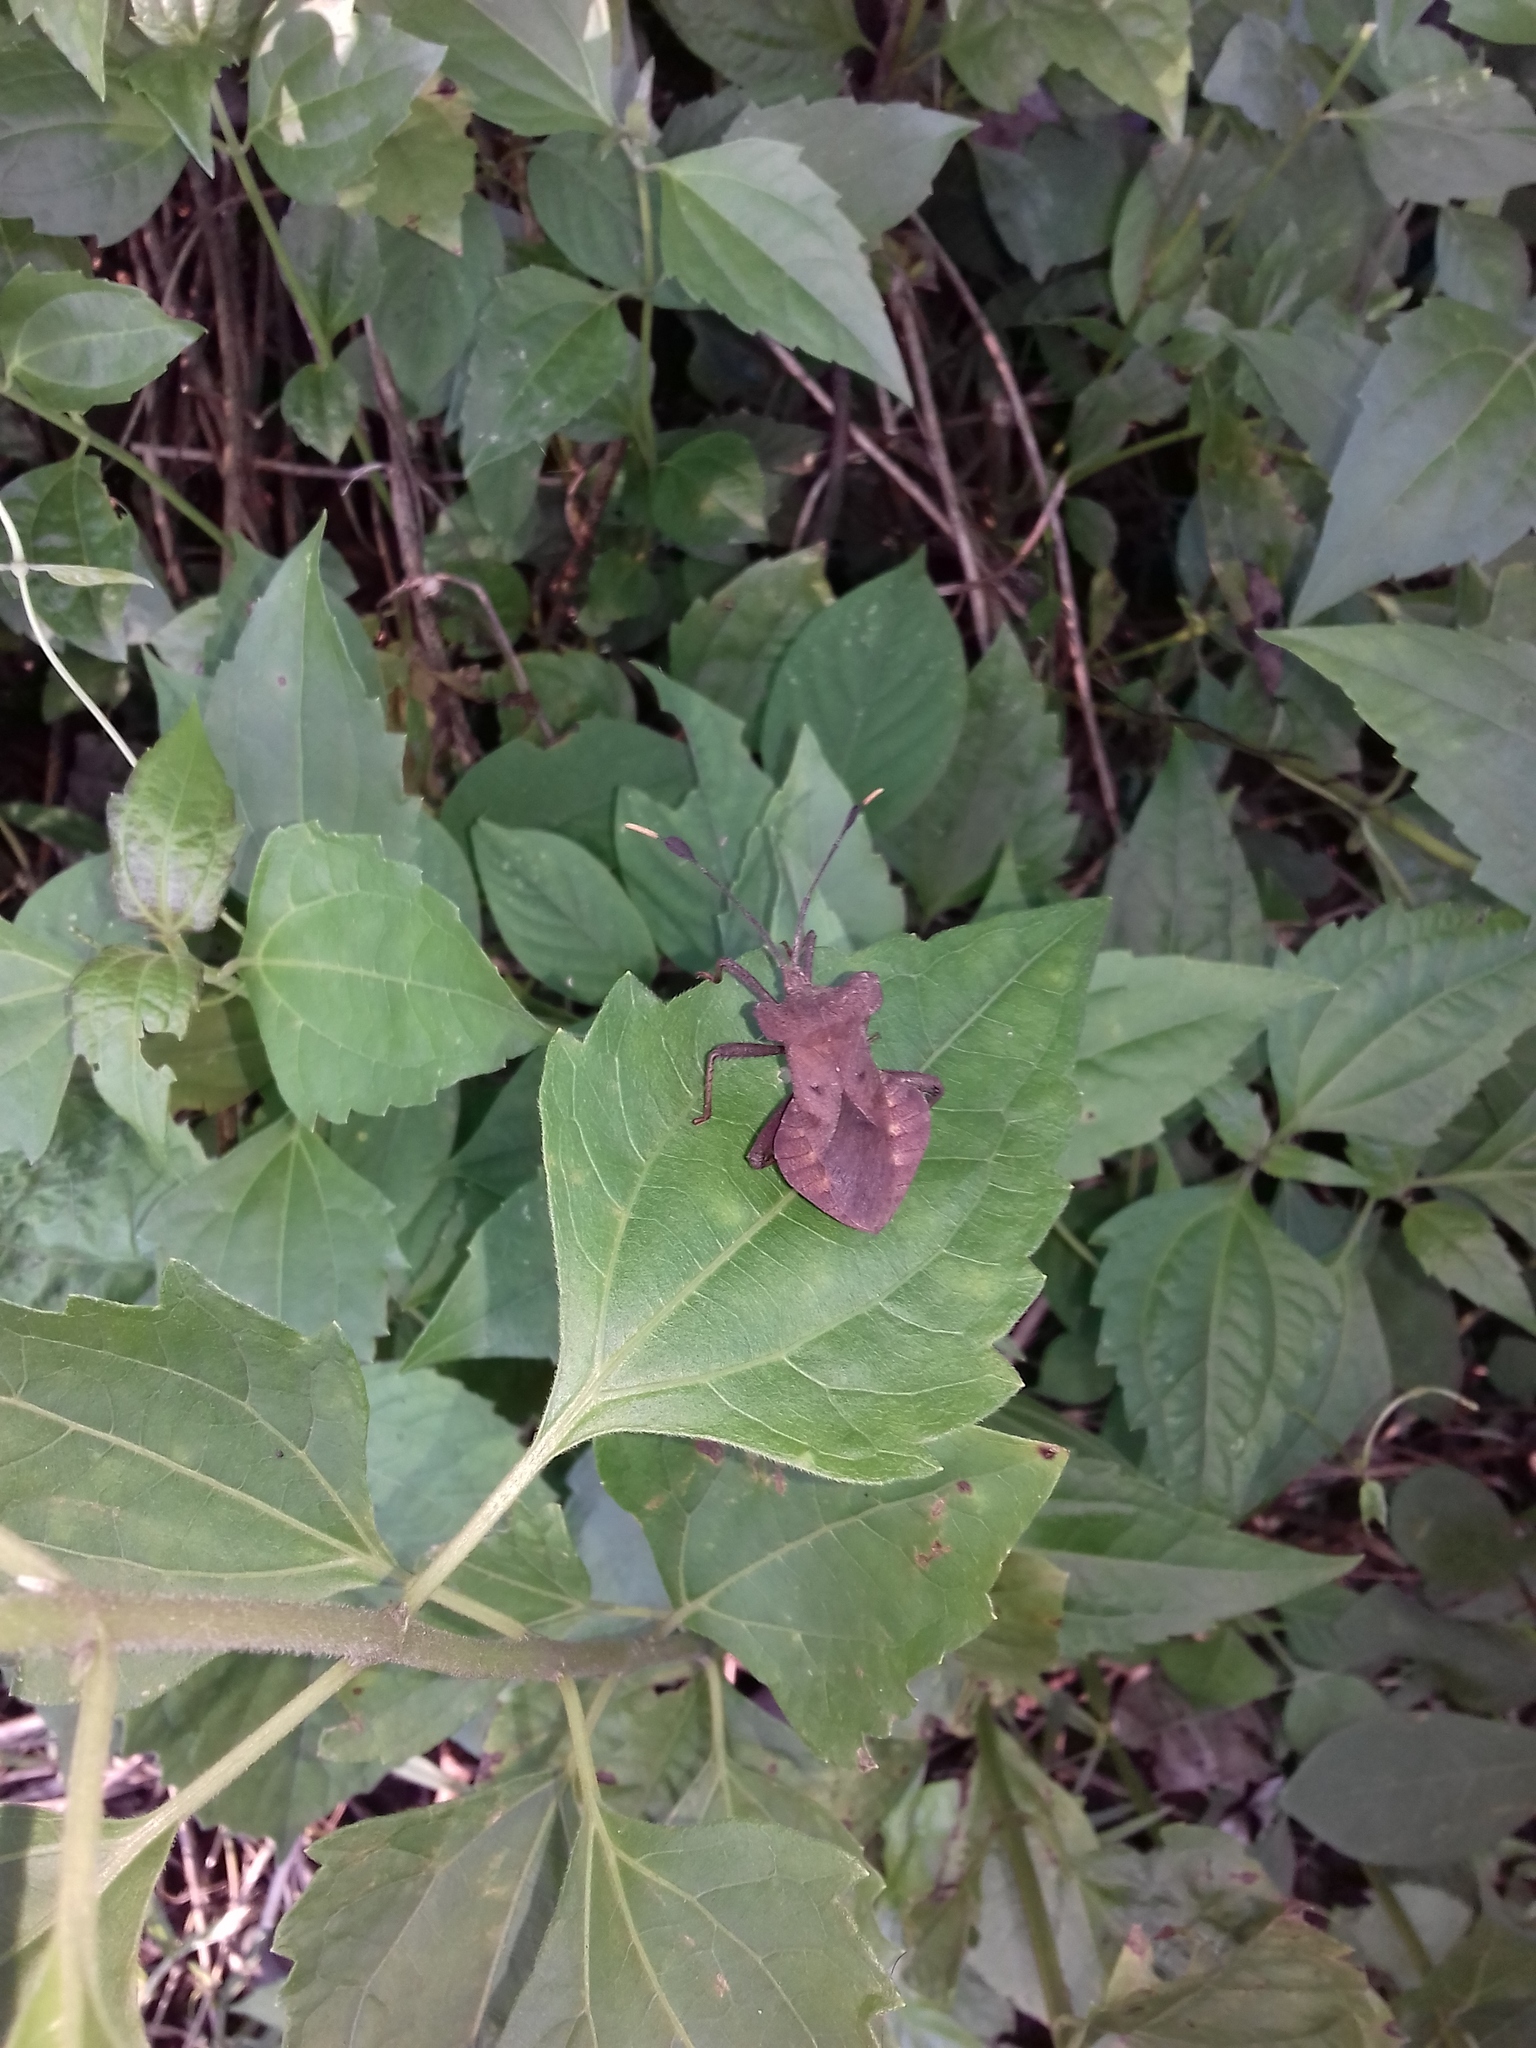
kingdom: Animalia
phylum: Arthropoda
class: Insecta
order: Hemiptera
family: Coreidae
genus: Dalader
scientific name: Dalader planiventris
